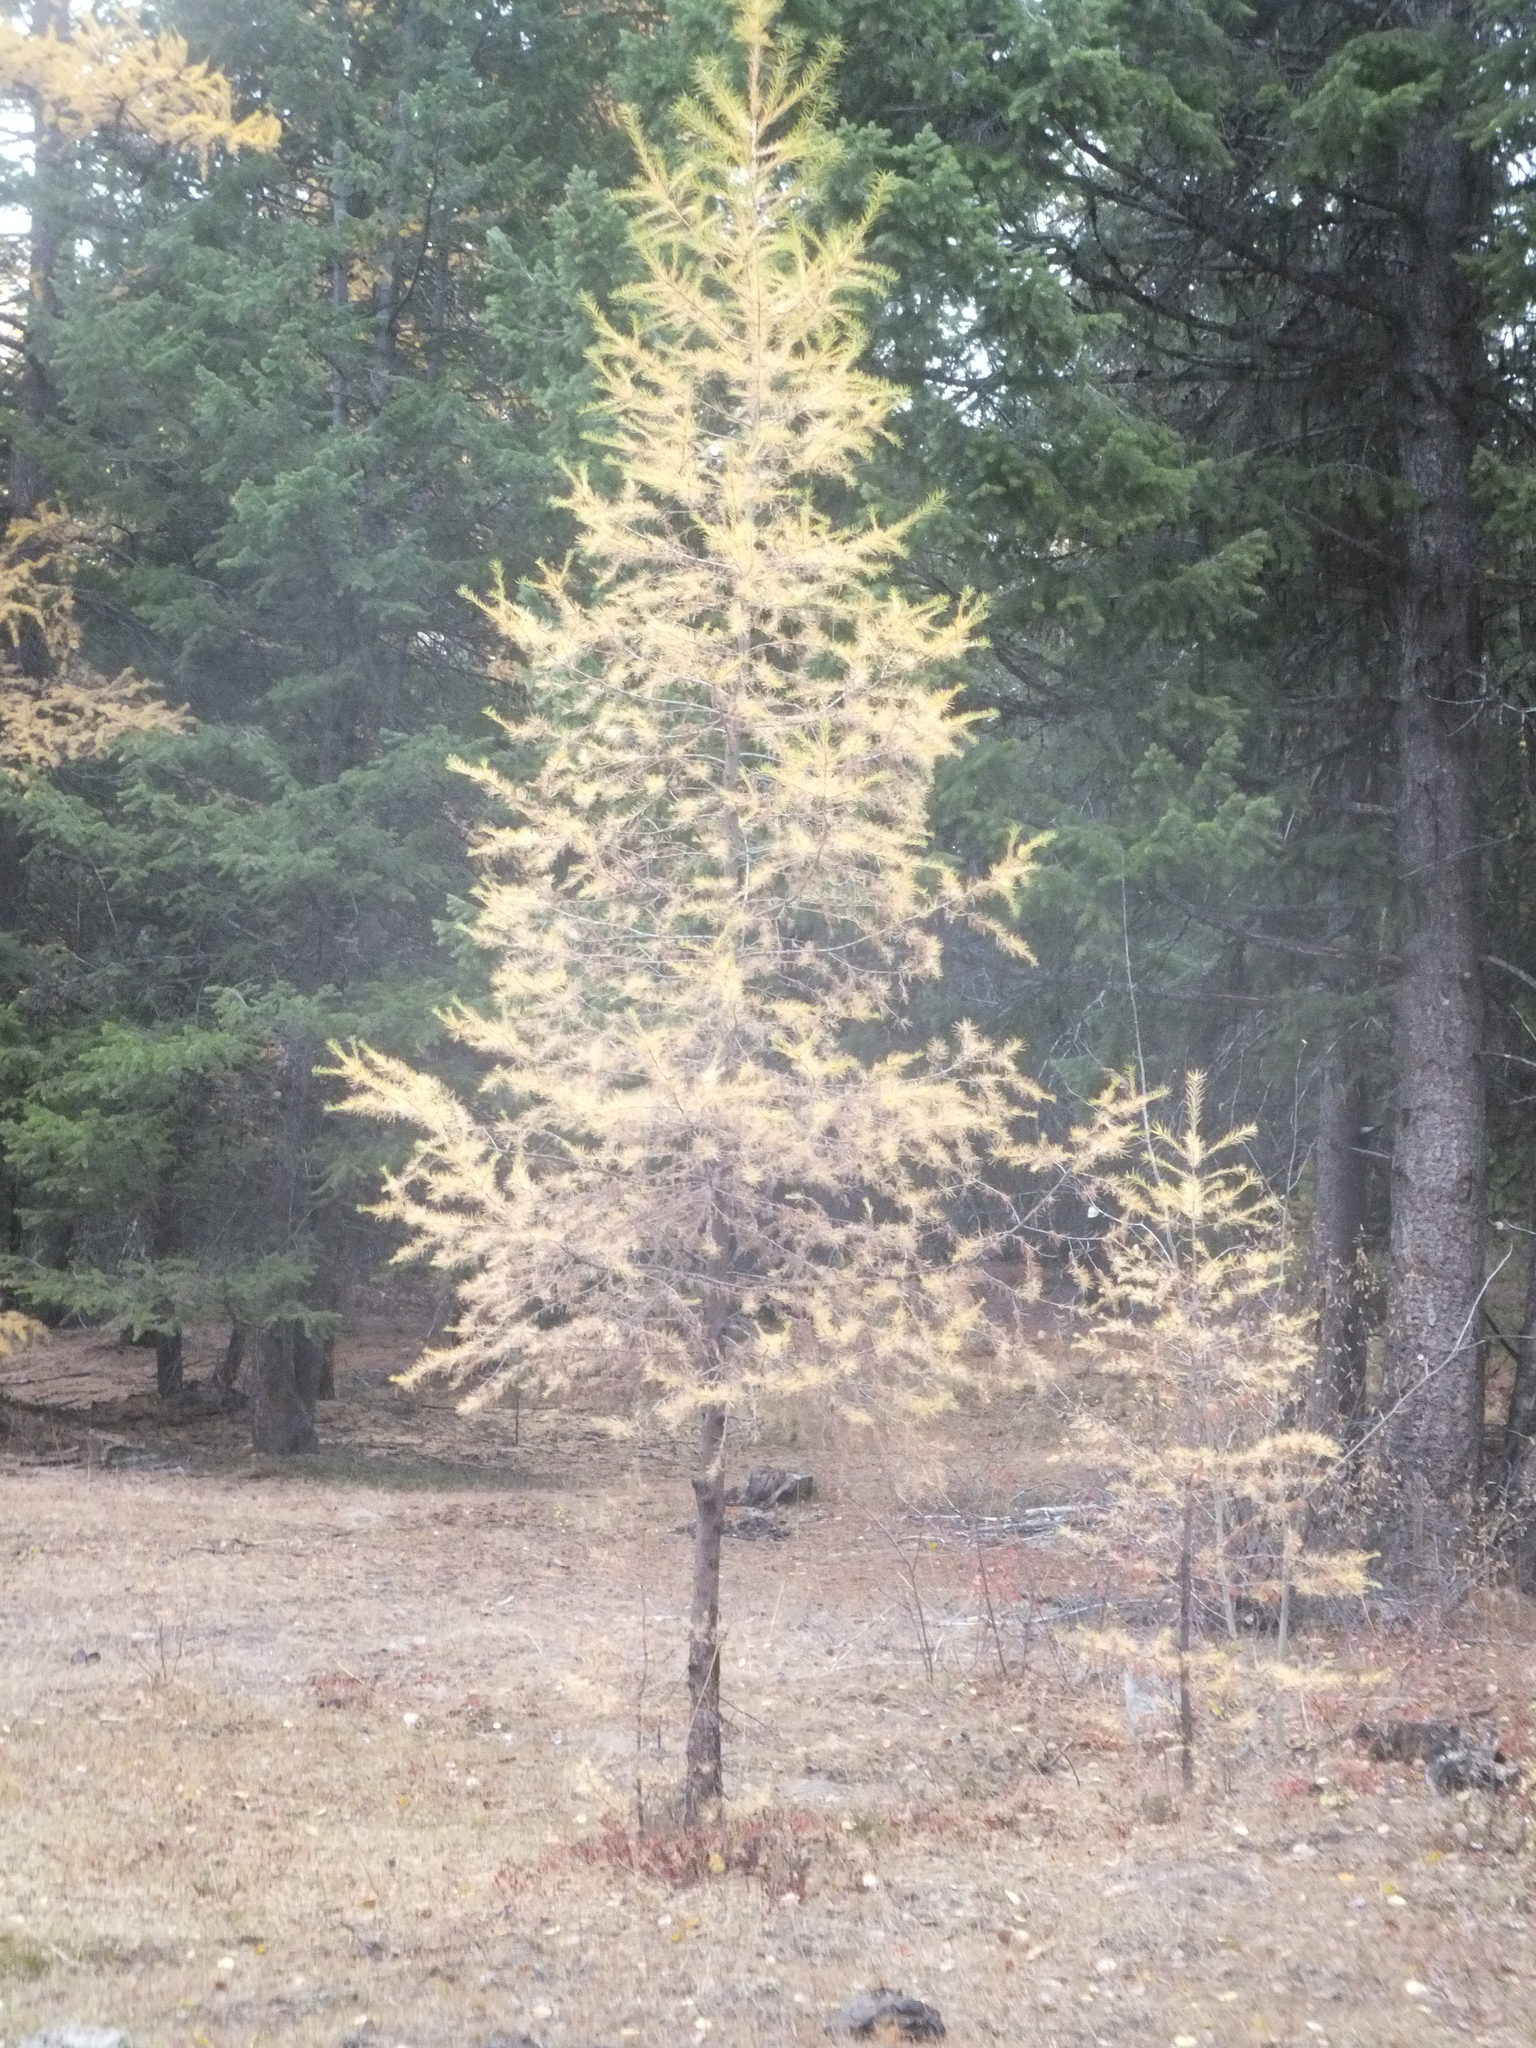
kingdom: Plantae
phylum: Tracheophyta
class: Pinopsida
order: Pinales
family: Pinaceae
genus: Larix
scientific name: Larix occidentalis
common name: Western larch
